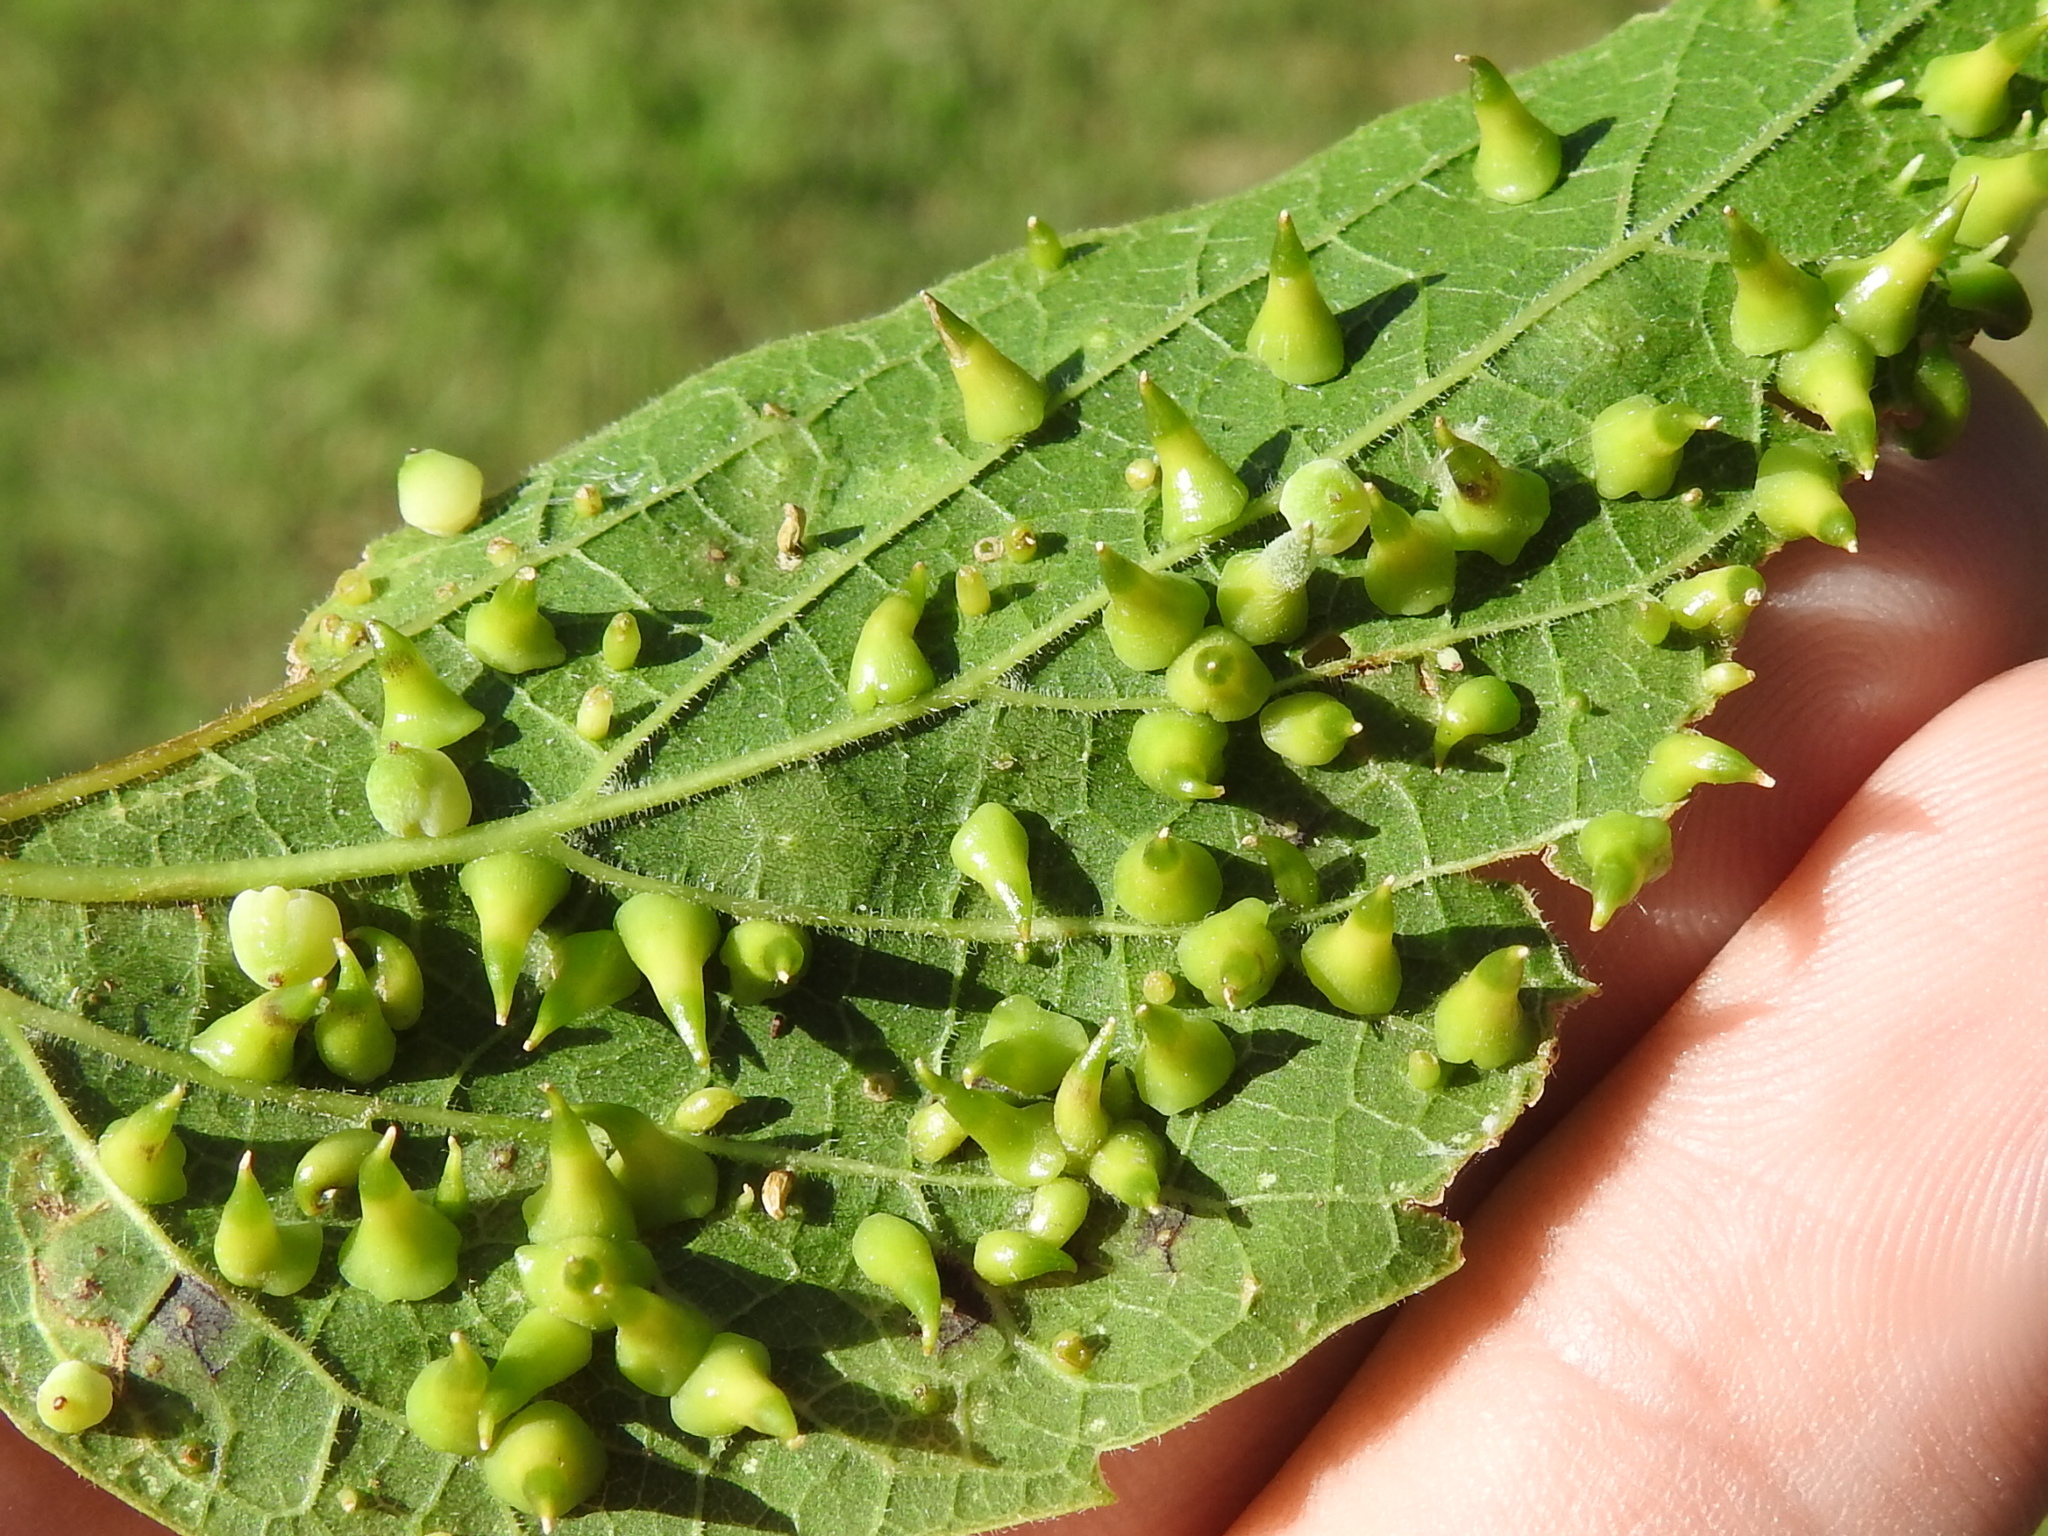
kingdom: Animalia
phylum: Arthropoda
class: Insecta
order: Diptera
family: Cecidomyiidae
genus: Celticecis
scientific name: Celticecis spiniformis
